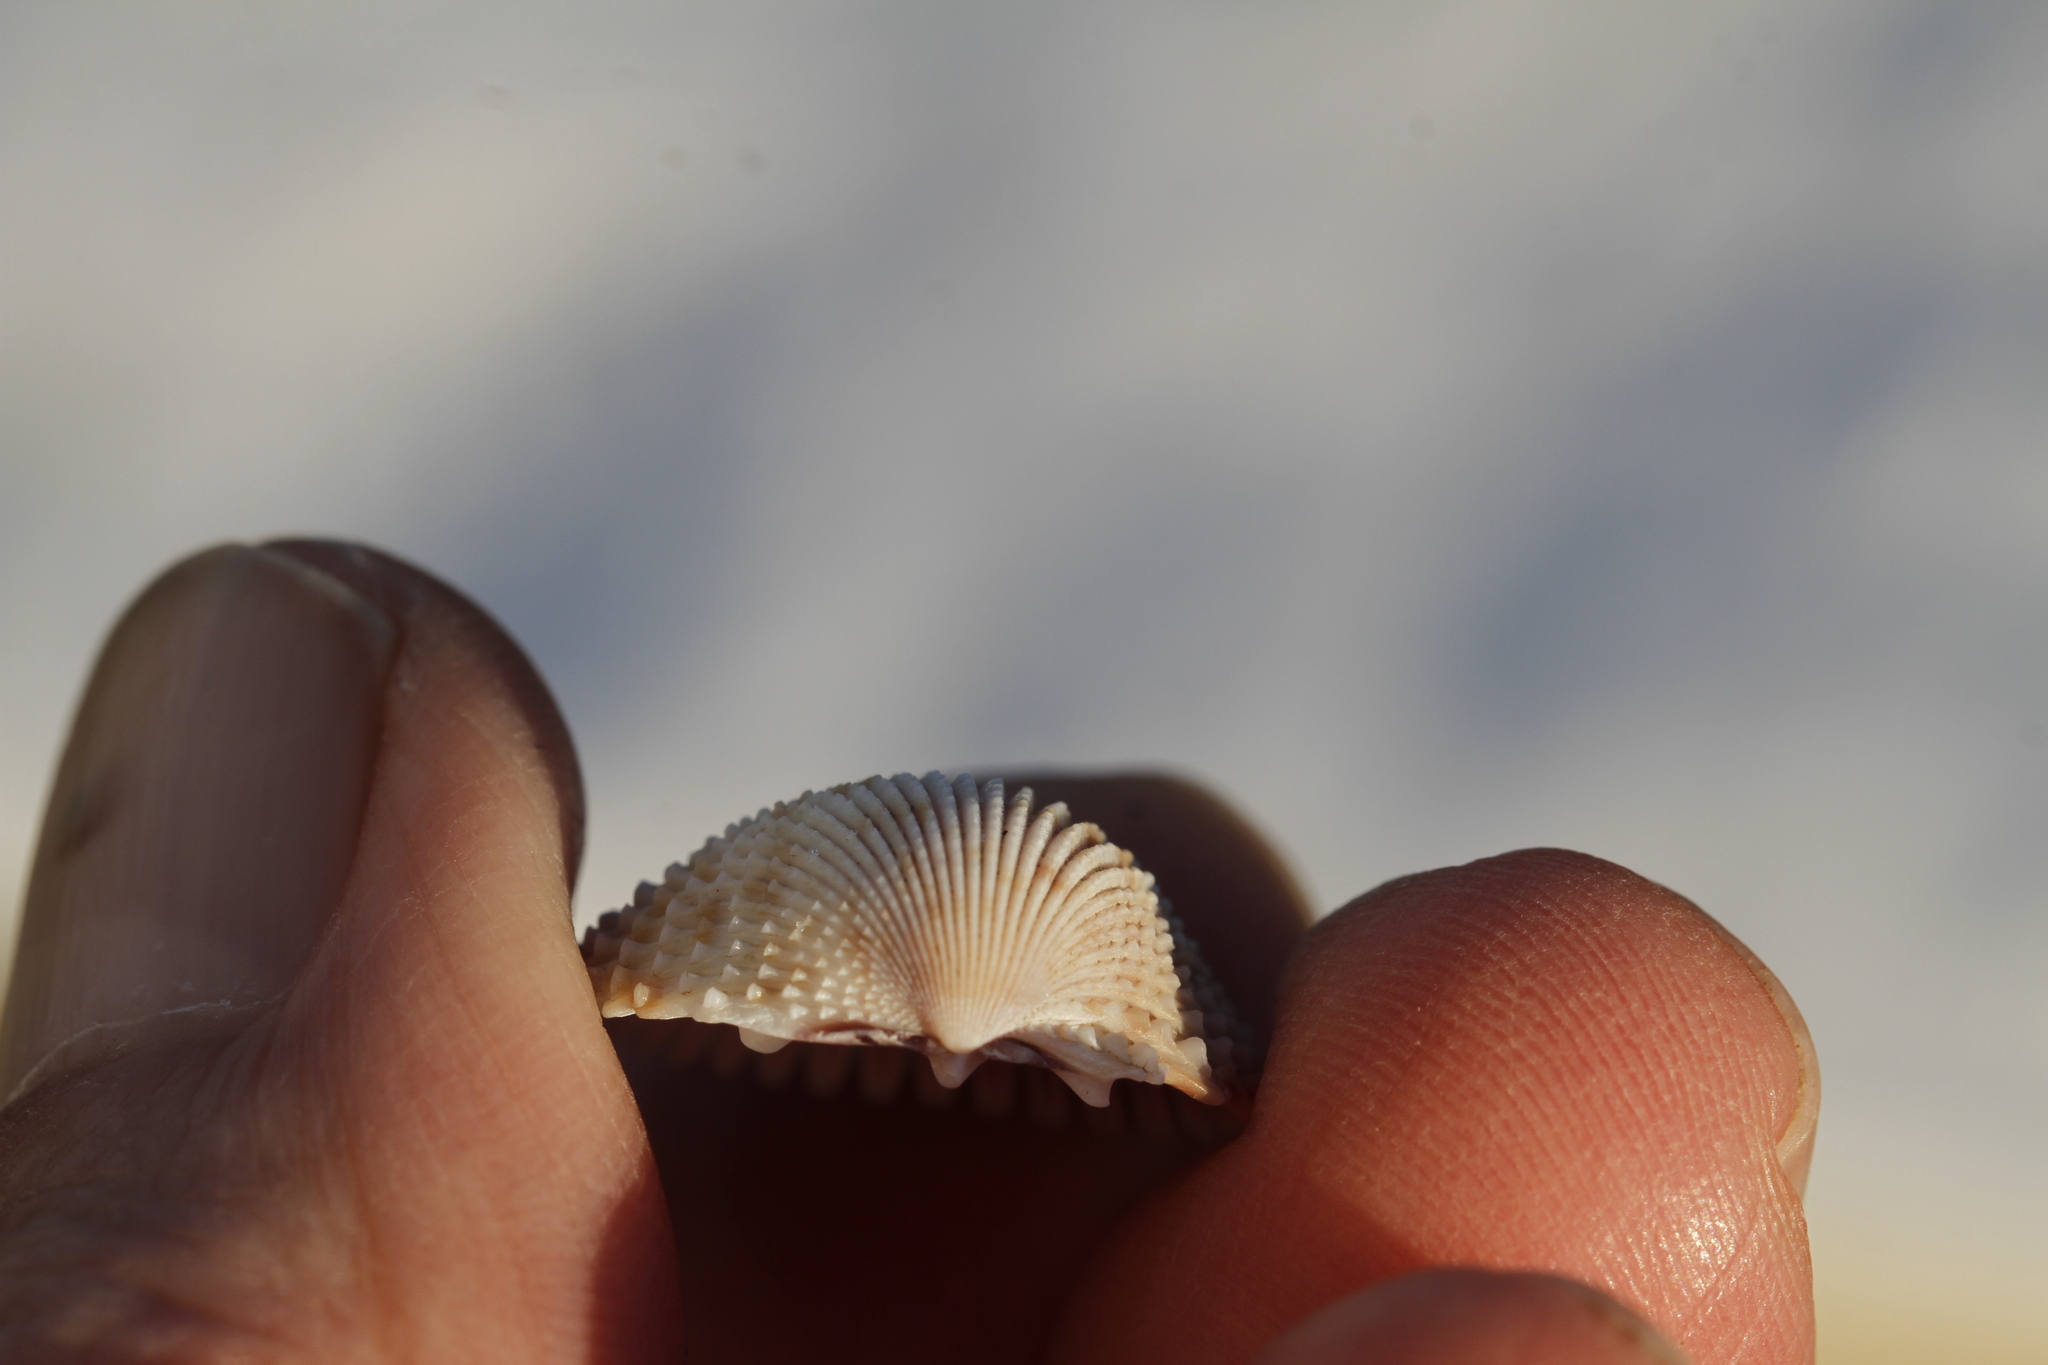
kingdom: Animalia
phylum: Mollusca
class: Bivalvia
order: Cardiida
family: Cardiidae
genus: Trachycardium
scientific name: Trachycardium egmontianum
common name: Florida pricklycockle
